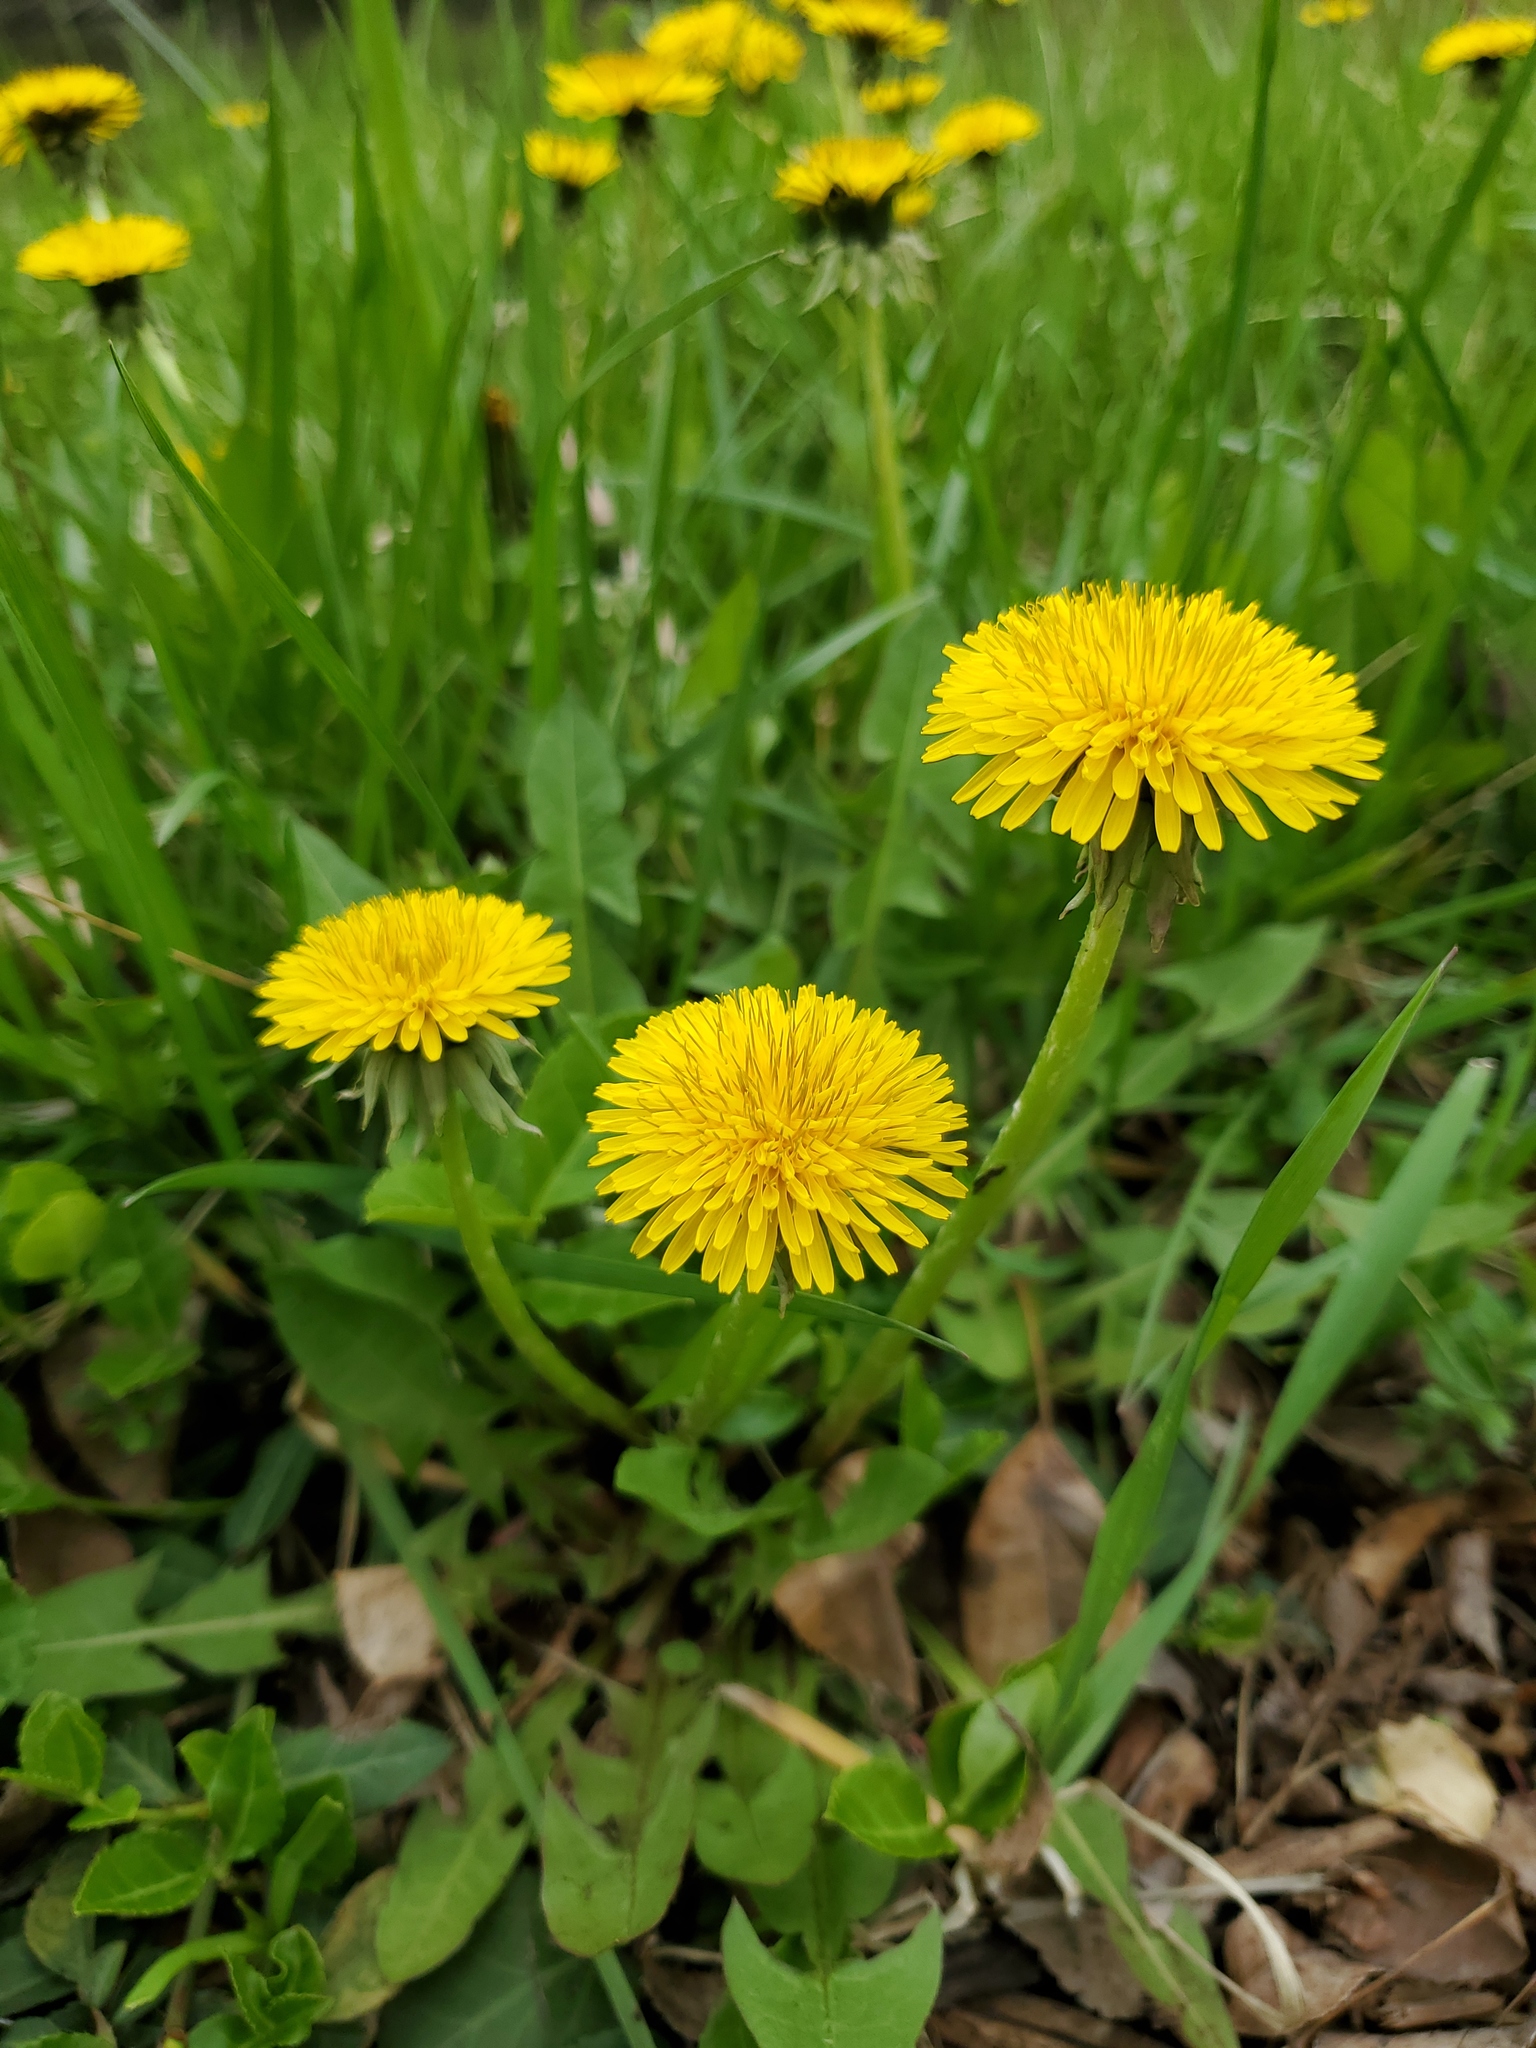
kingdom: Plantae
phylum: Tracheophyta
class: Magnoliopsida
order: Asterales
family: Asteraceae
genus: Taraxacum
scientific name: Taraxacum officinale
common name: Common dandelion
